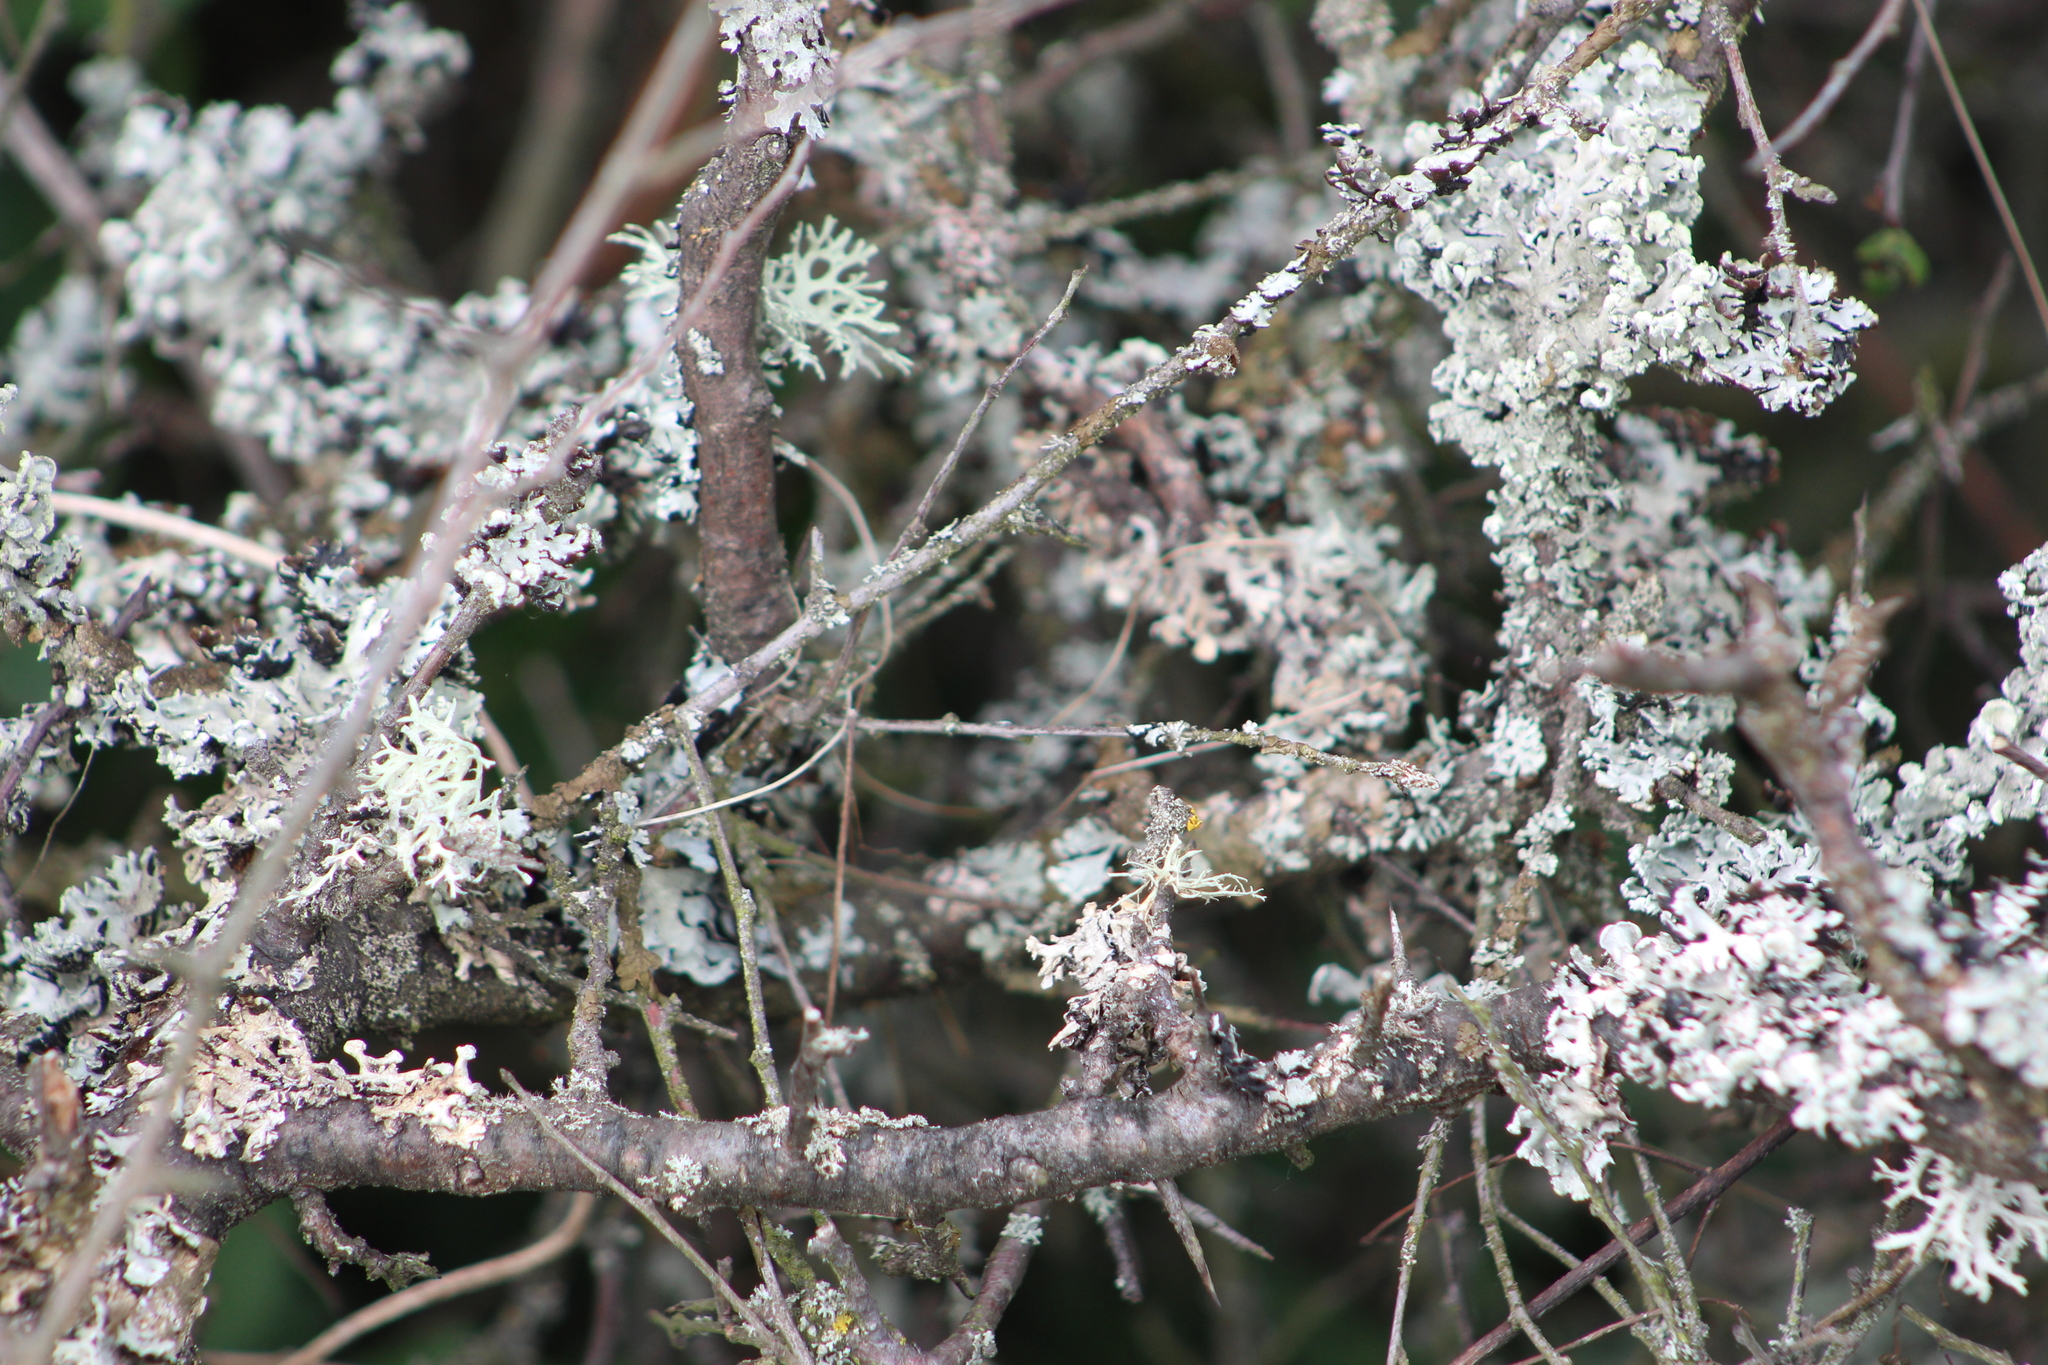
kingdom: Fungi
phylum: Ascomycota
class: Lecanoromycetes
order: Lecanorales
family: Parmeliaceae
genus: Hypogymnia
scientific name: Hypogymnia physodes
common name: Dark crottle
